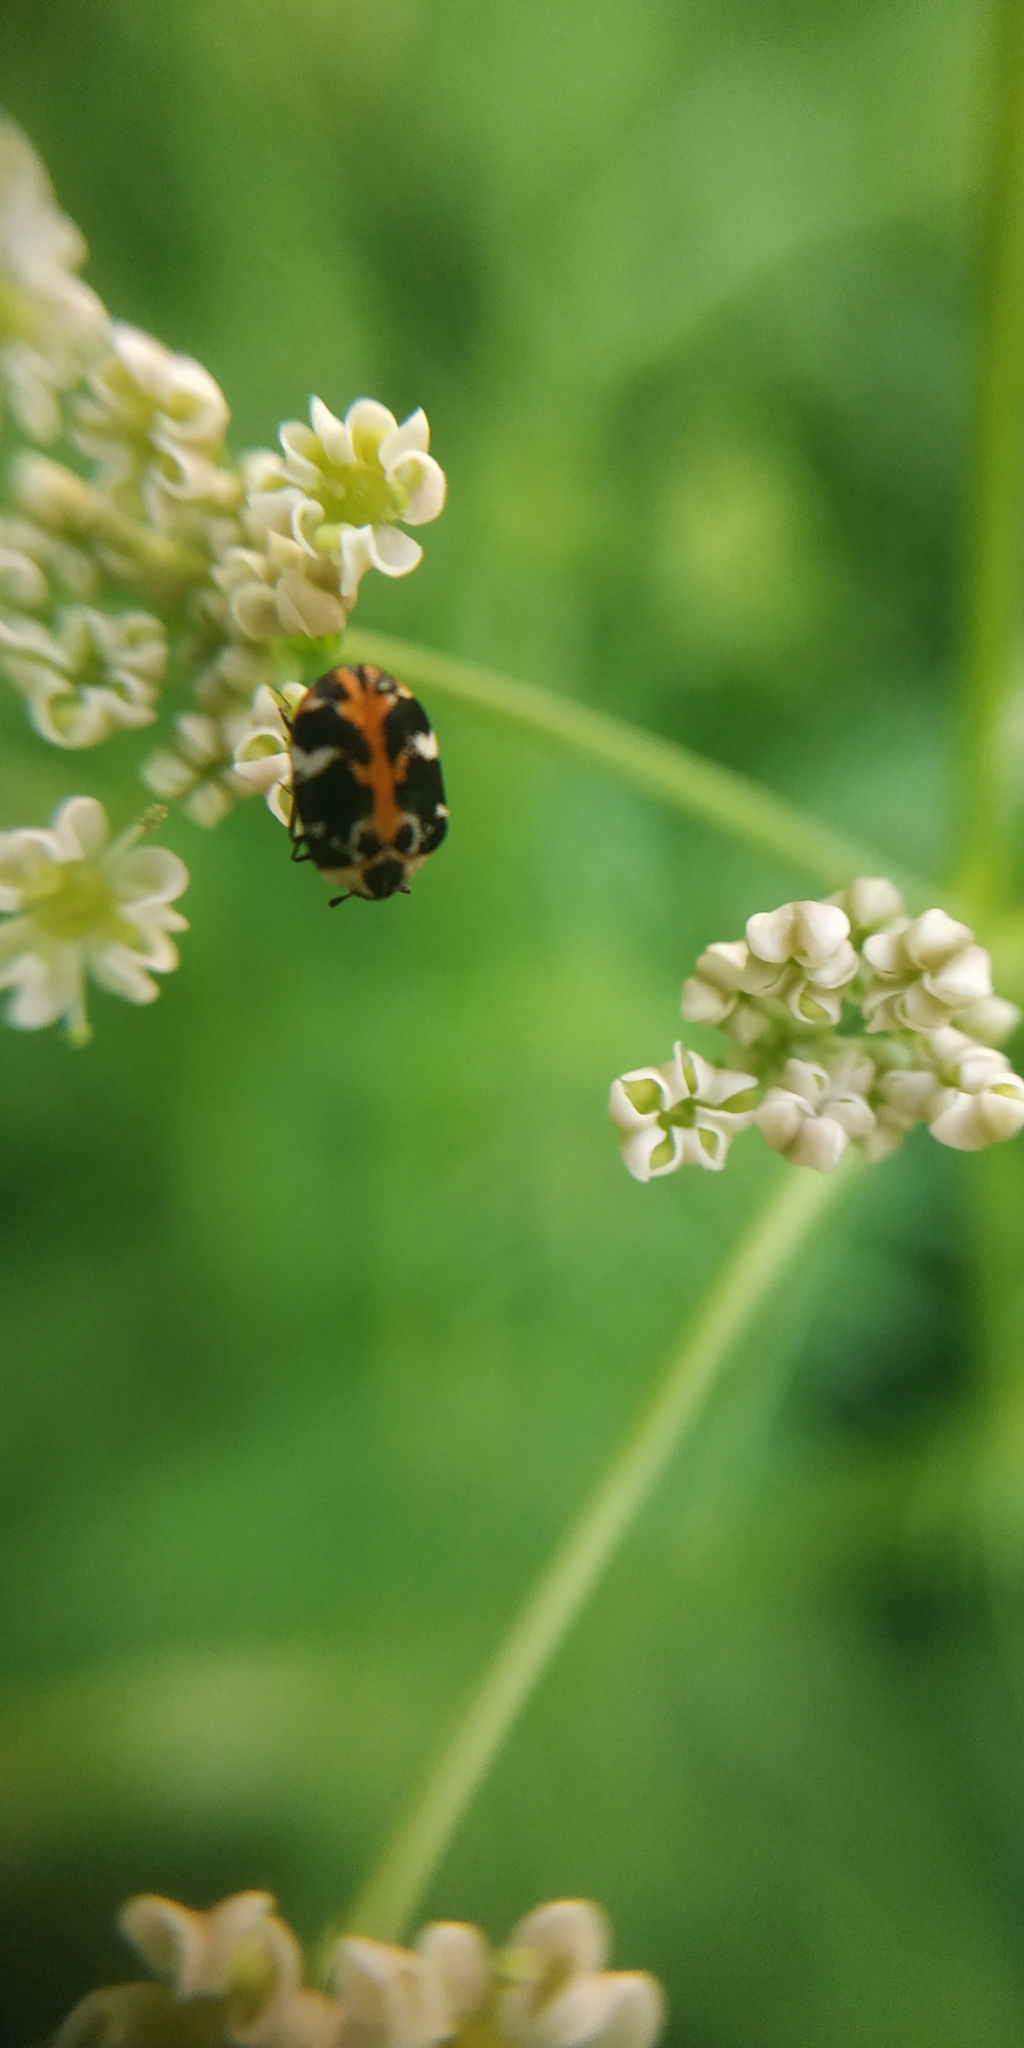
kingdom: Animalia
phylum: Arthropoda
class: Insecta
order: Coleoptera
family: Dermestidae
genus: Anthrenus
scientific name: Anthrenus scrophulariae
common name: Buffalo carpet beetle
